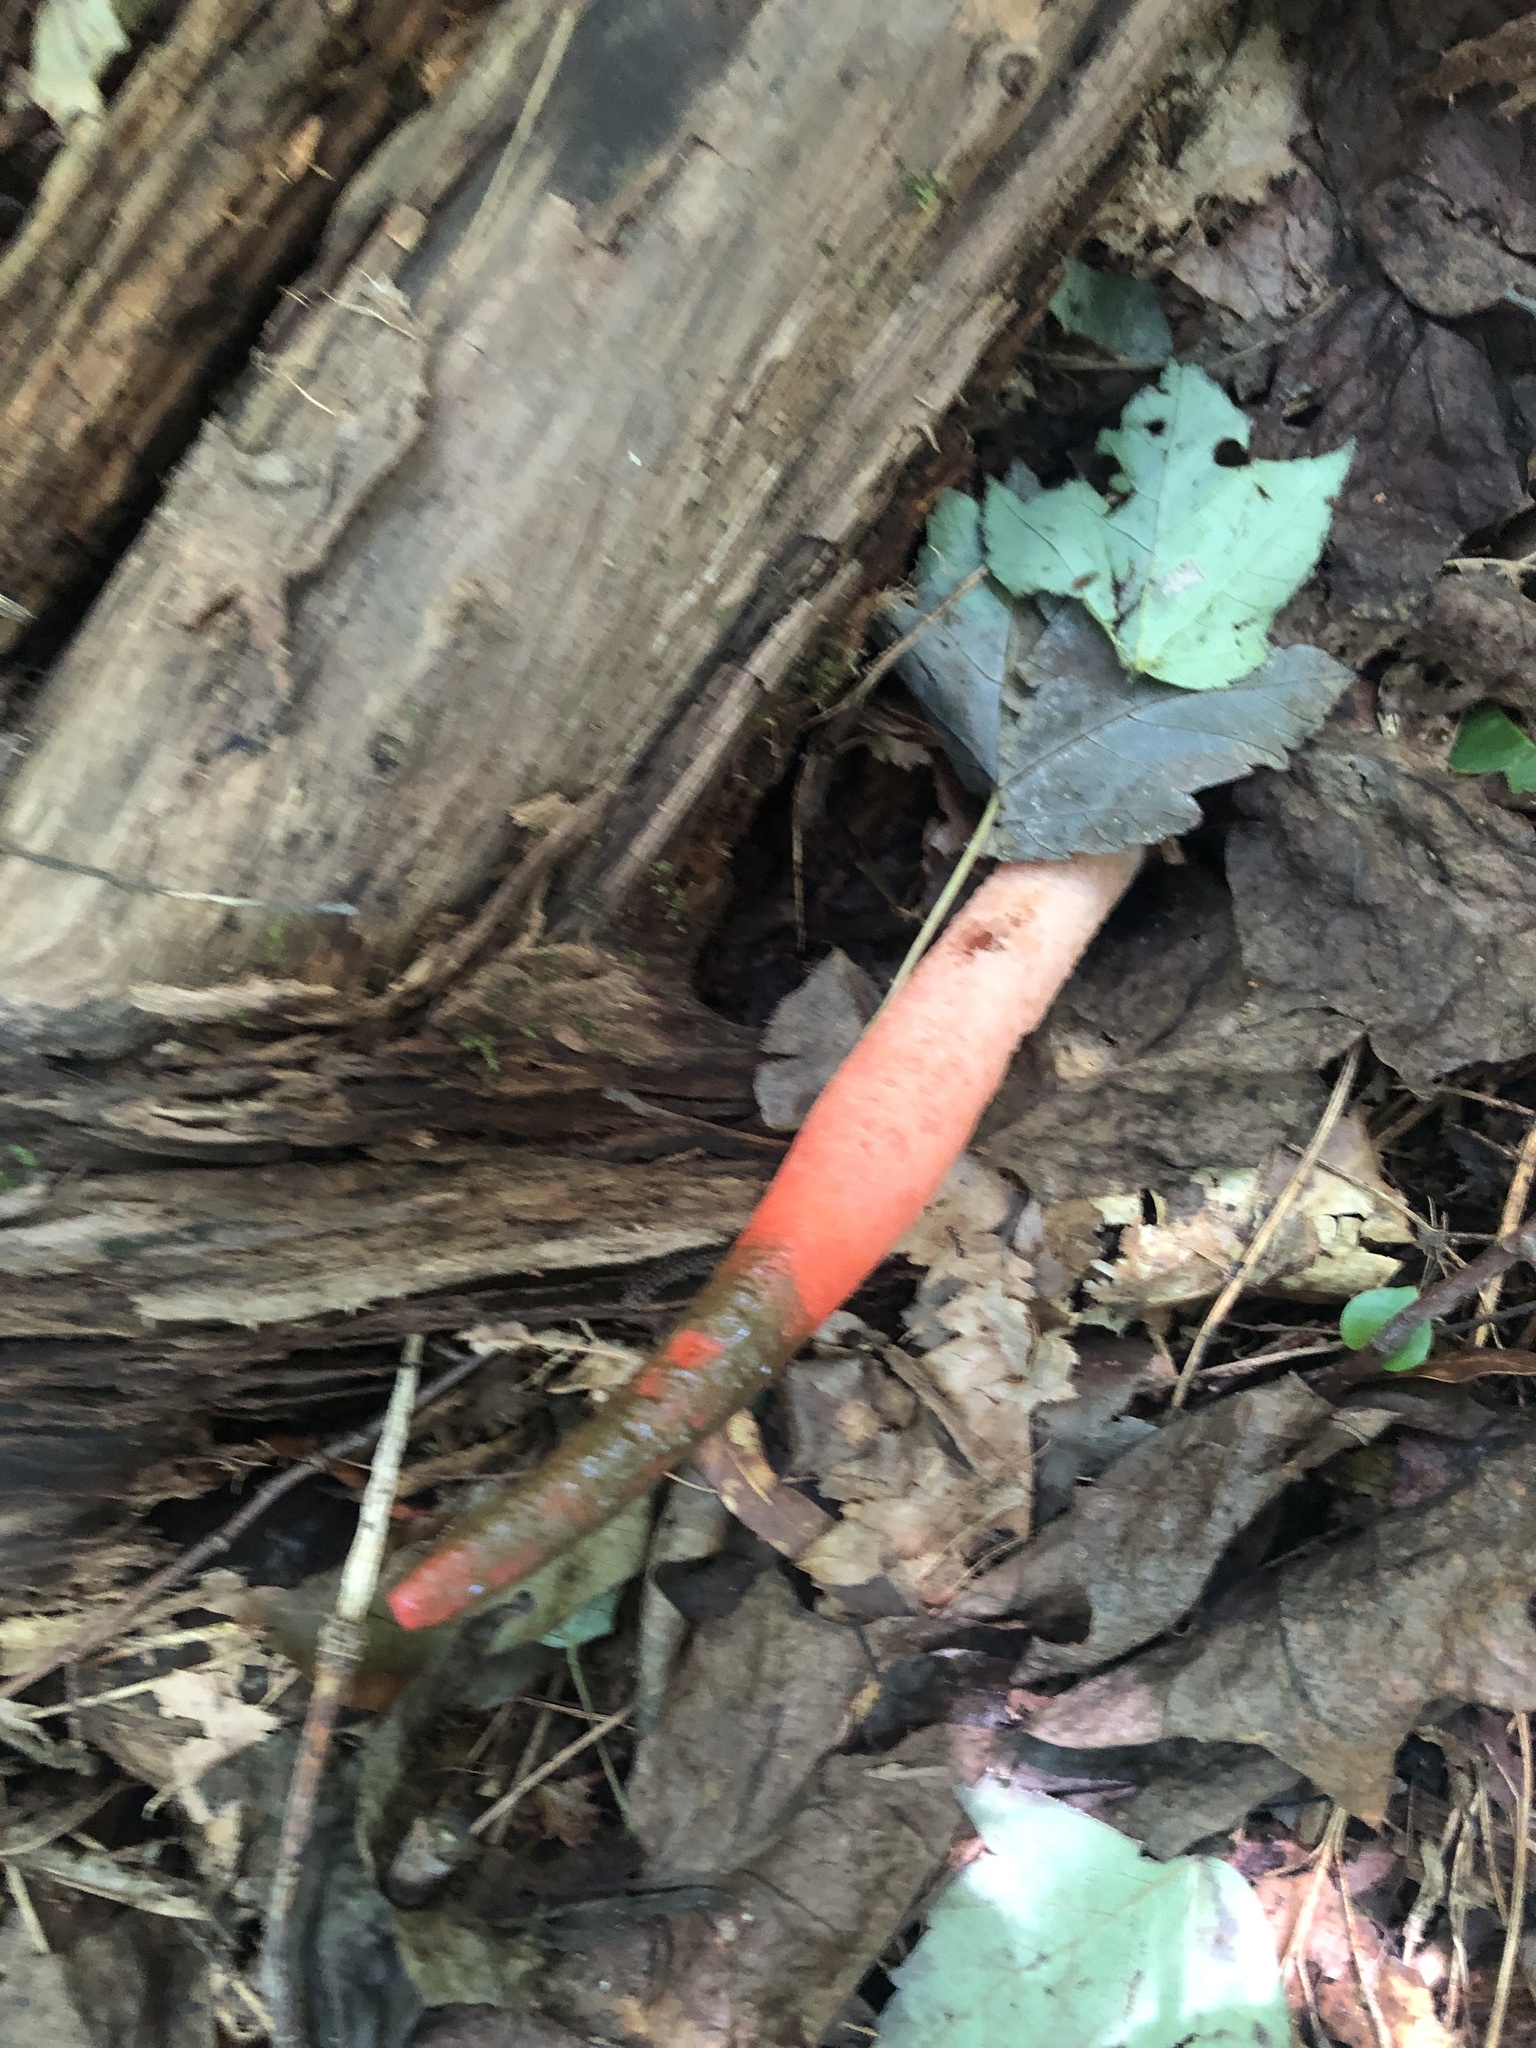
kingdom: Fungi
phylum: Basidiomycota
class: Agaricomycetes
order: Phallales
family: Phallaceae
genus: Mutinus
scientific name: Mutinus elegans
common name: Devil's dipstick
